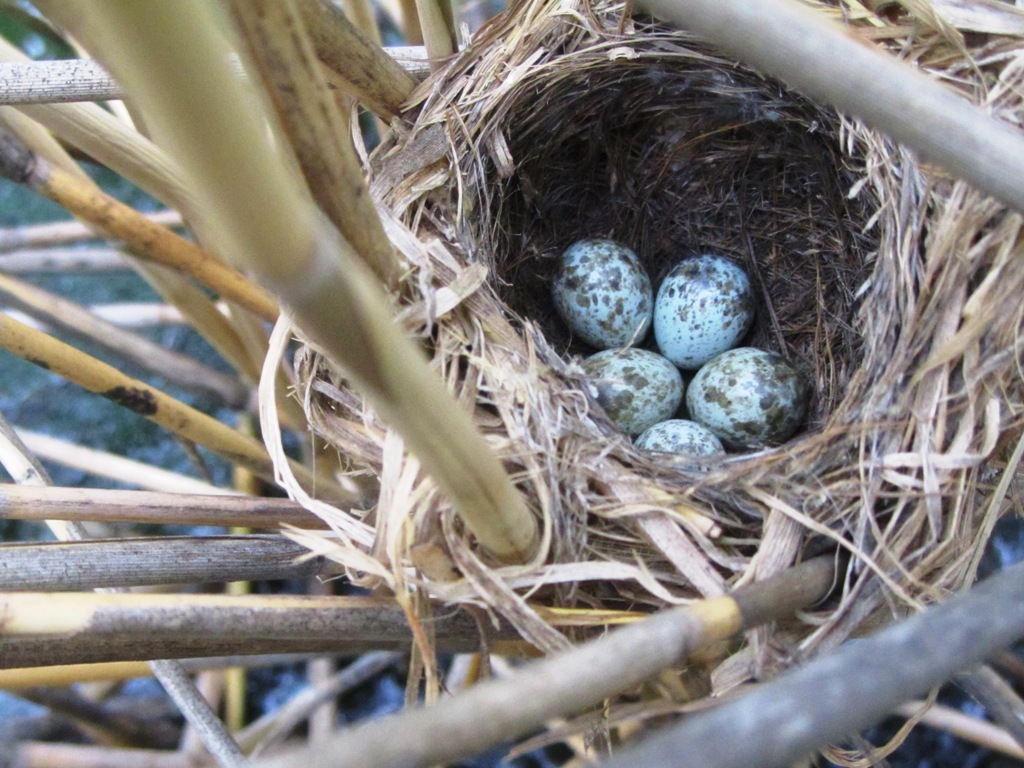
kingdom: Animalia
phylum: Chordata
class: Aves
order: Passeriformes
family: Acrocephalidae
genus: Acrocephalus
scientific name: Acrocephalus agricola
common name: Paddyfield warbler
